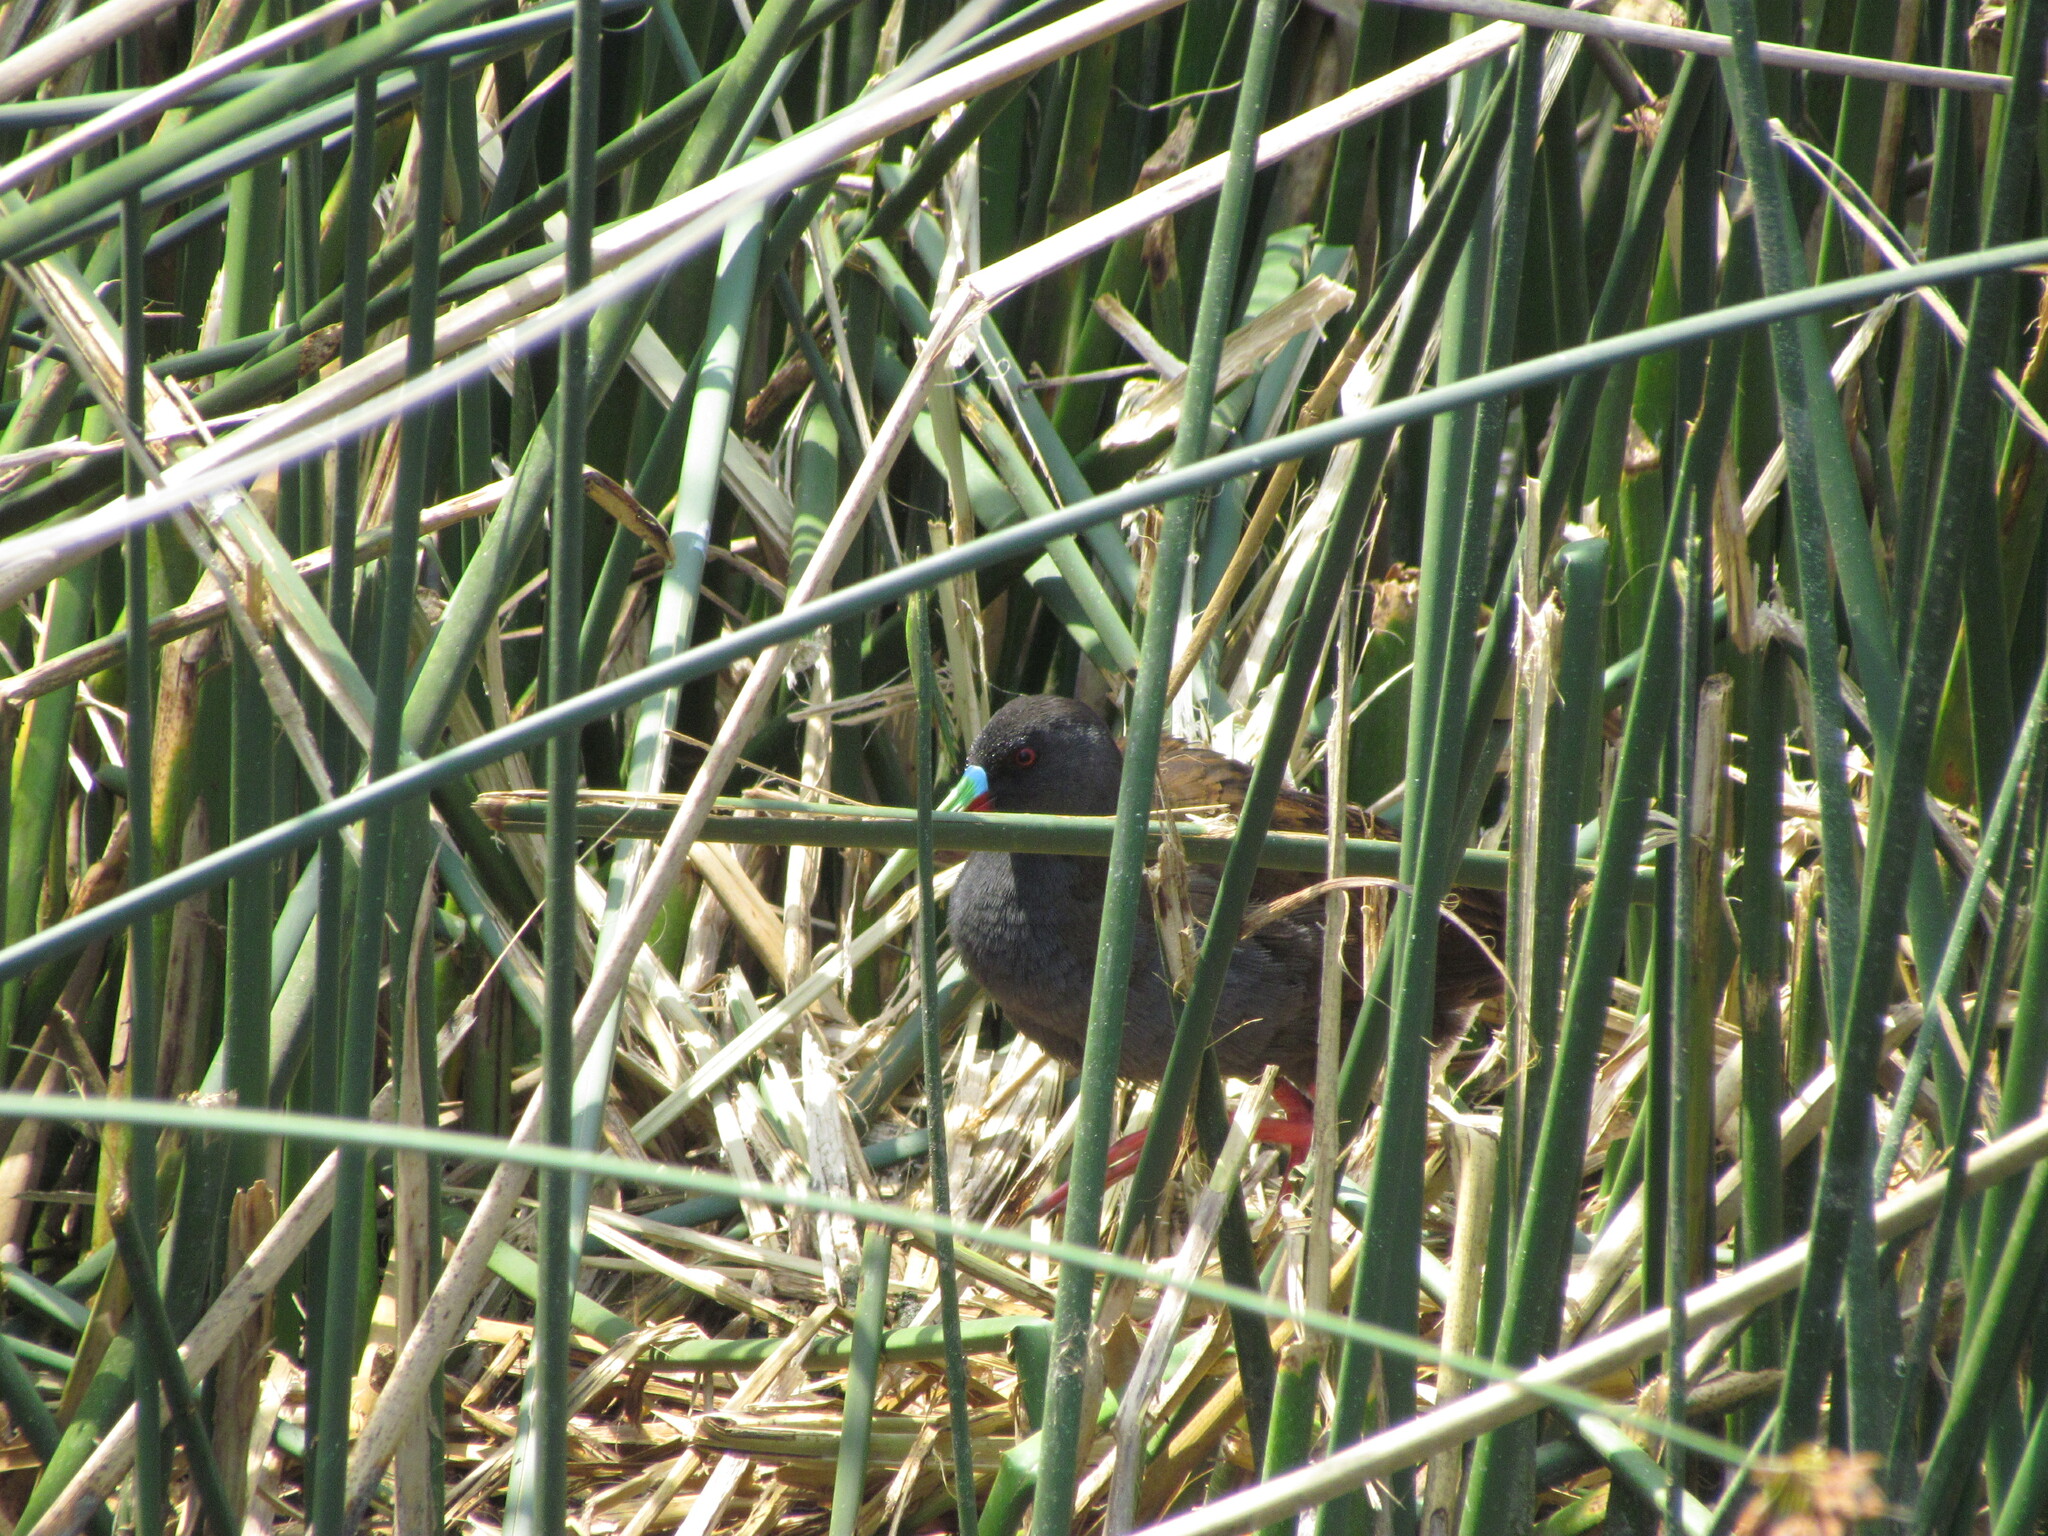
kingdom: Animalia
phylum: Chordata
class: Aves
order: Gruiformes
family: Rallidae
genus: Pardirallus
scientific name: Pardirallus sanguinolentus
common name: Plumbeous rail
